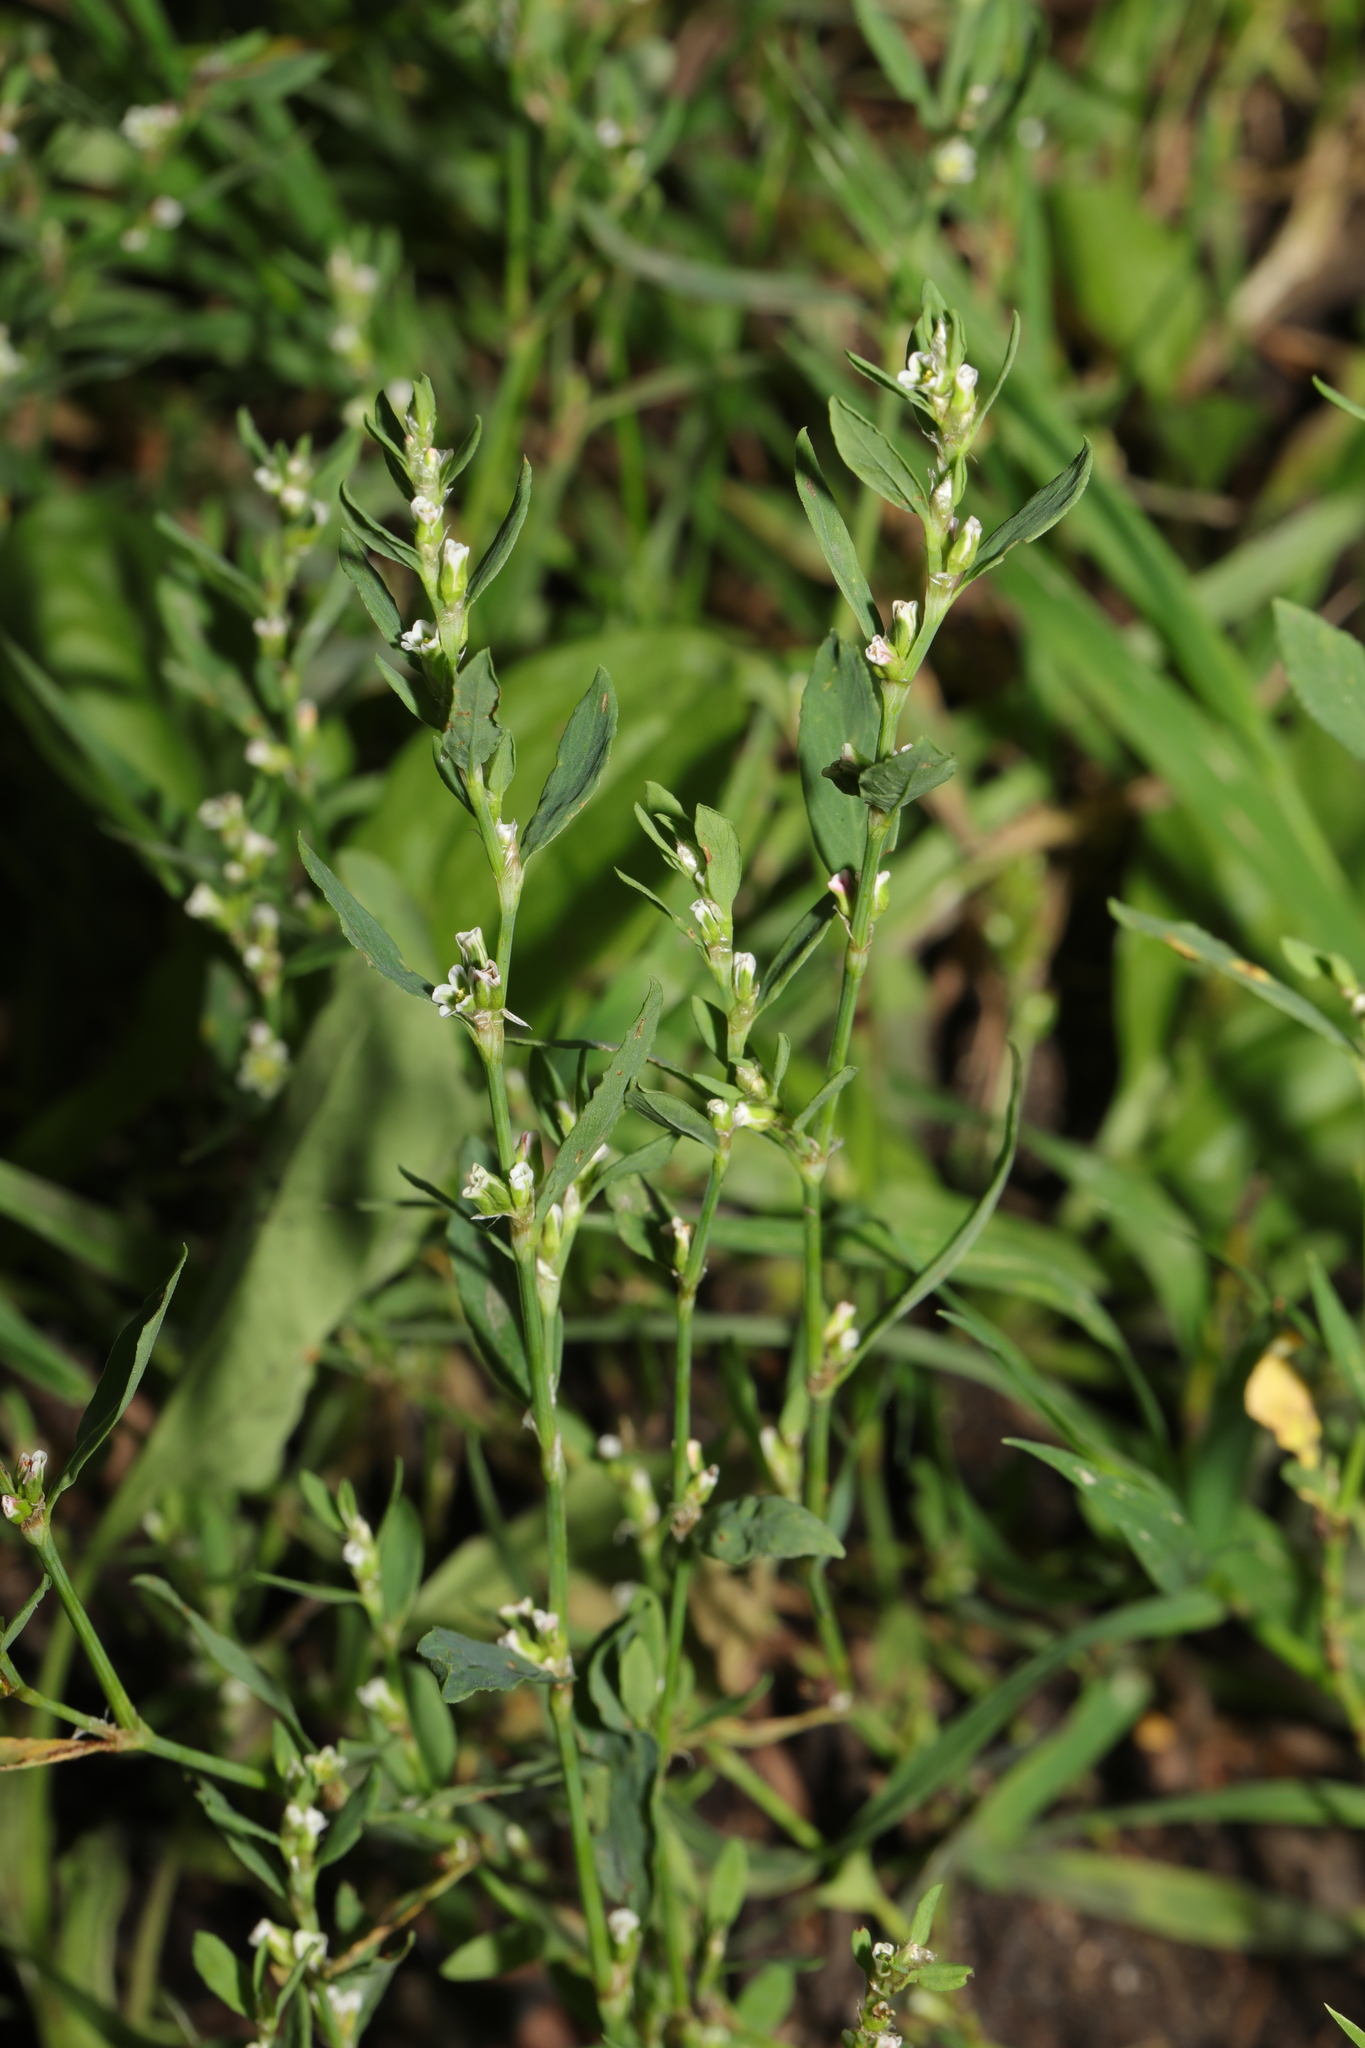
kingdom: Plantae
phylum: Tracheophyta
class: Magnoliopsida
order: Caryophyllales
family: Polygonaceae
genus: Polygonum
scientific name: Polygonum aviculare
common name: Prostrate knotweed
